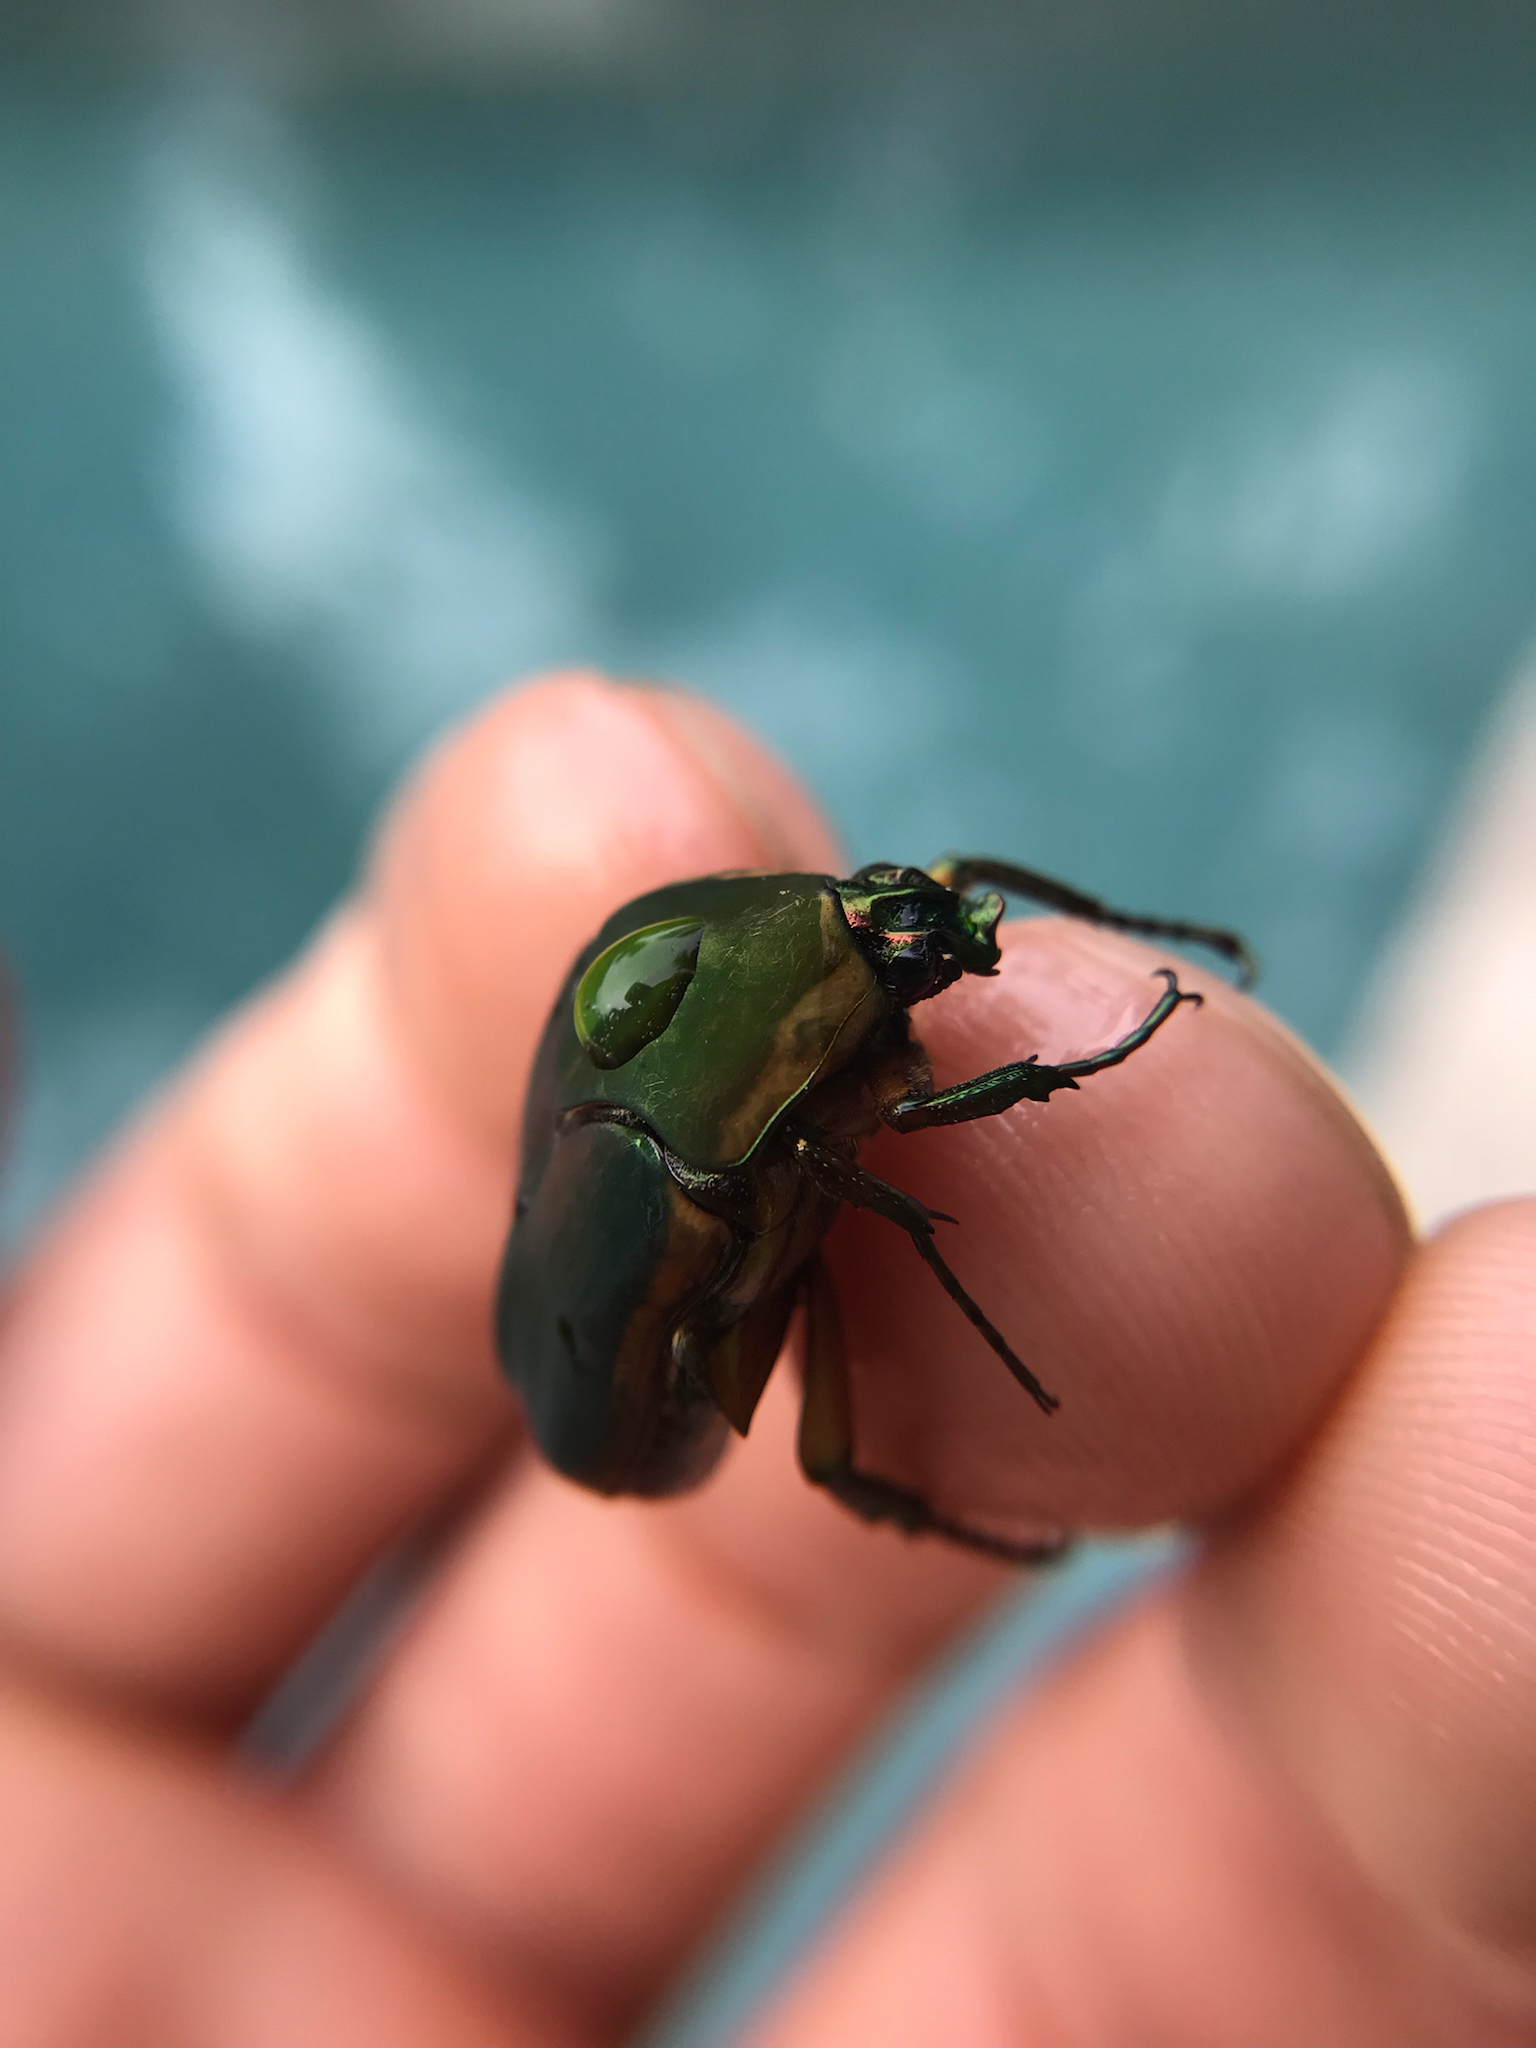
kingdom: Animalia
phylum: Arthropoda
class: Insecta
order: Coleoptera
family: Scarabaeidae
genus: Cotinis
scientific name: Cotinis nitida
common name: Common green june beetle
